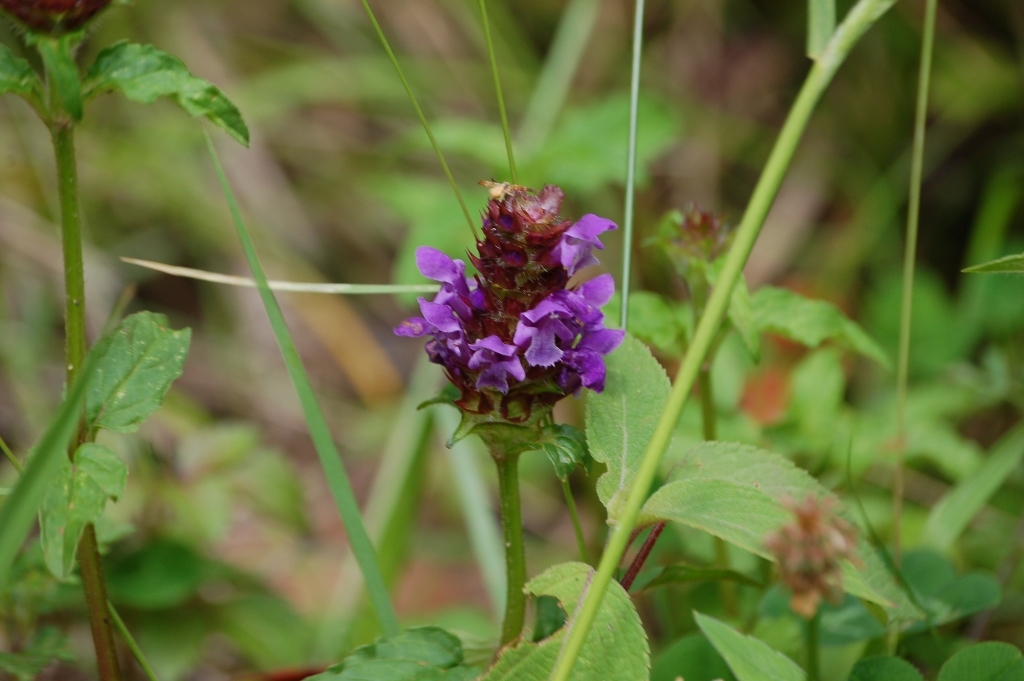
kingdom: Plantae
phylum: Tracheophyta
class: Magnoliopsida
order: Lamiales
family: Lamiaceae
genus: Prunella
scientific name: Prunella vulgaris
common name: Heal-all
